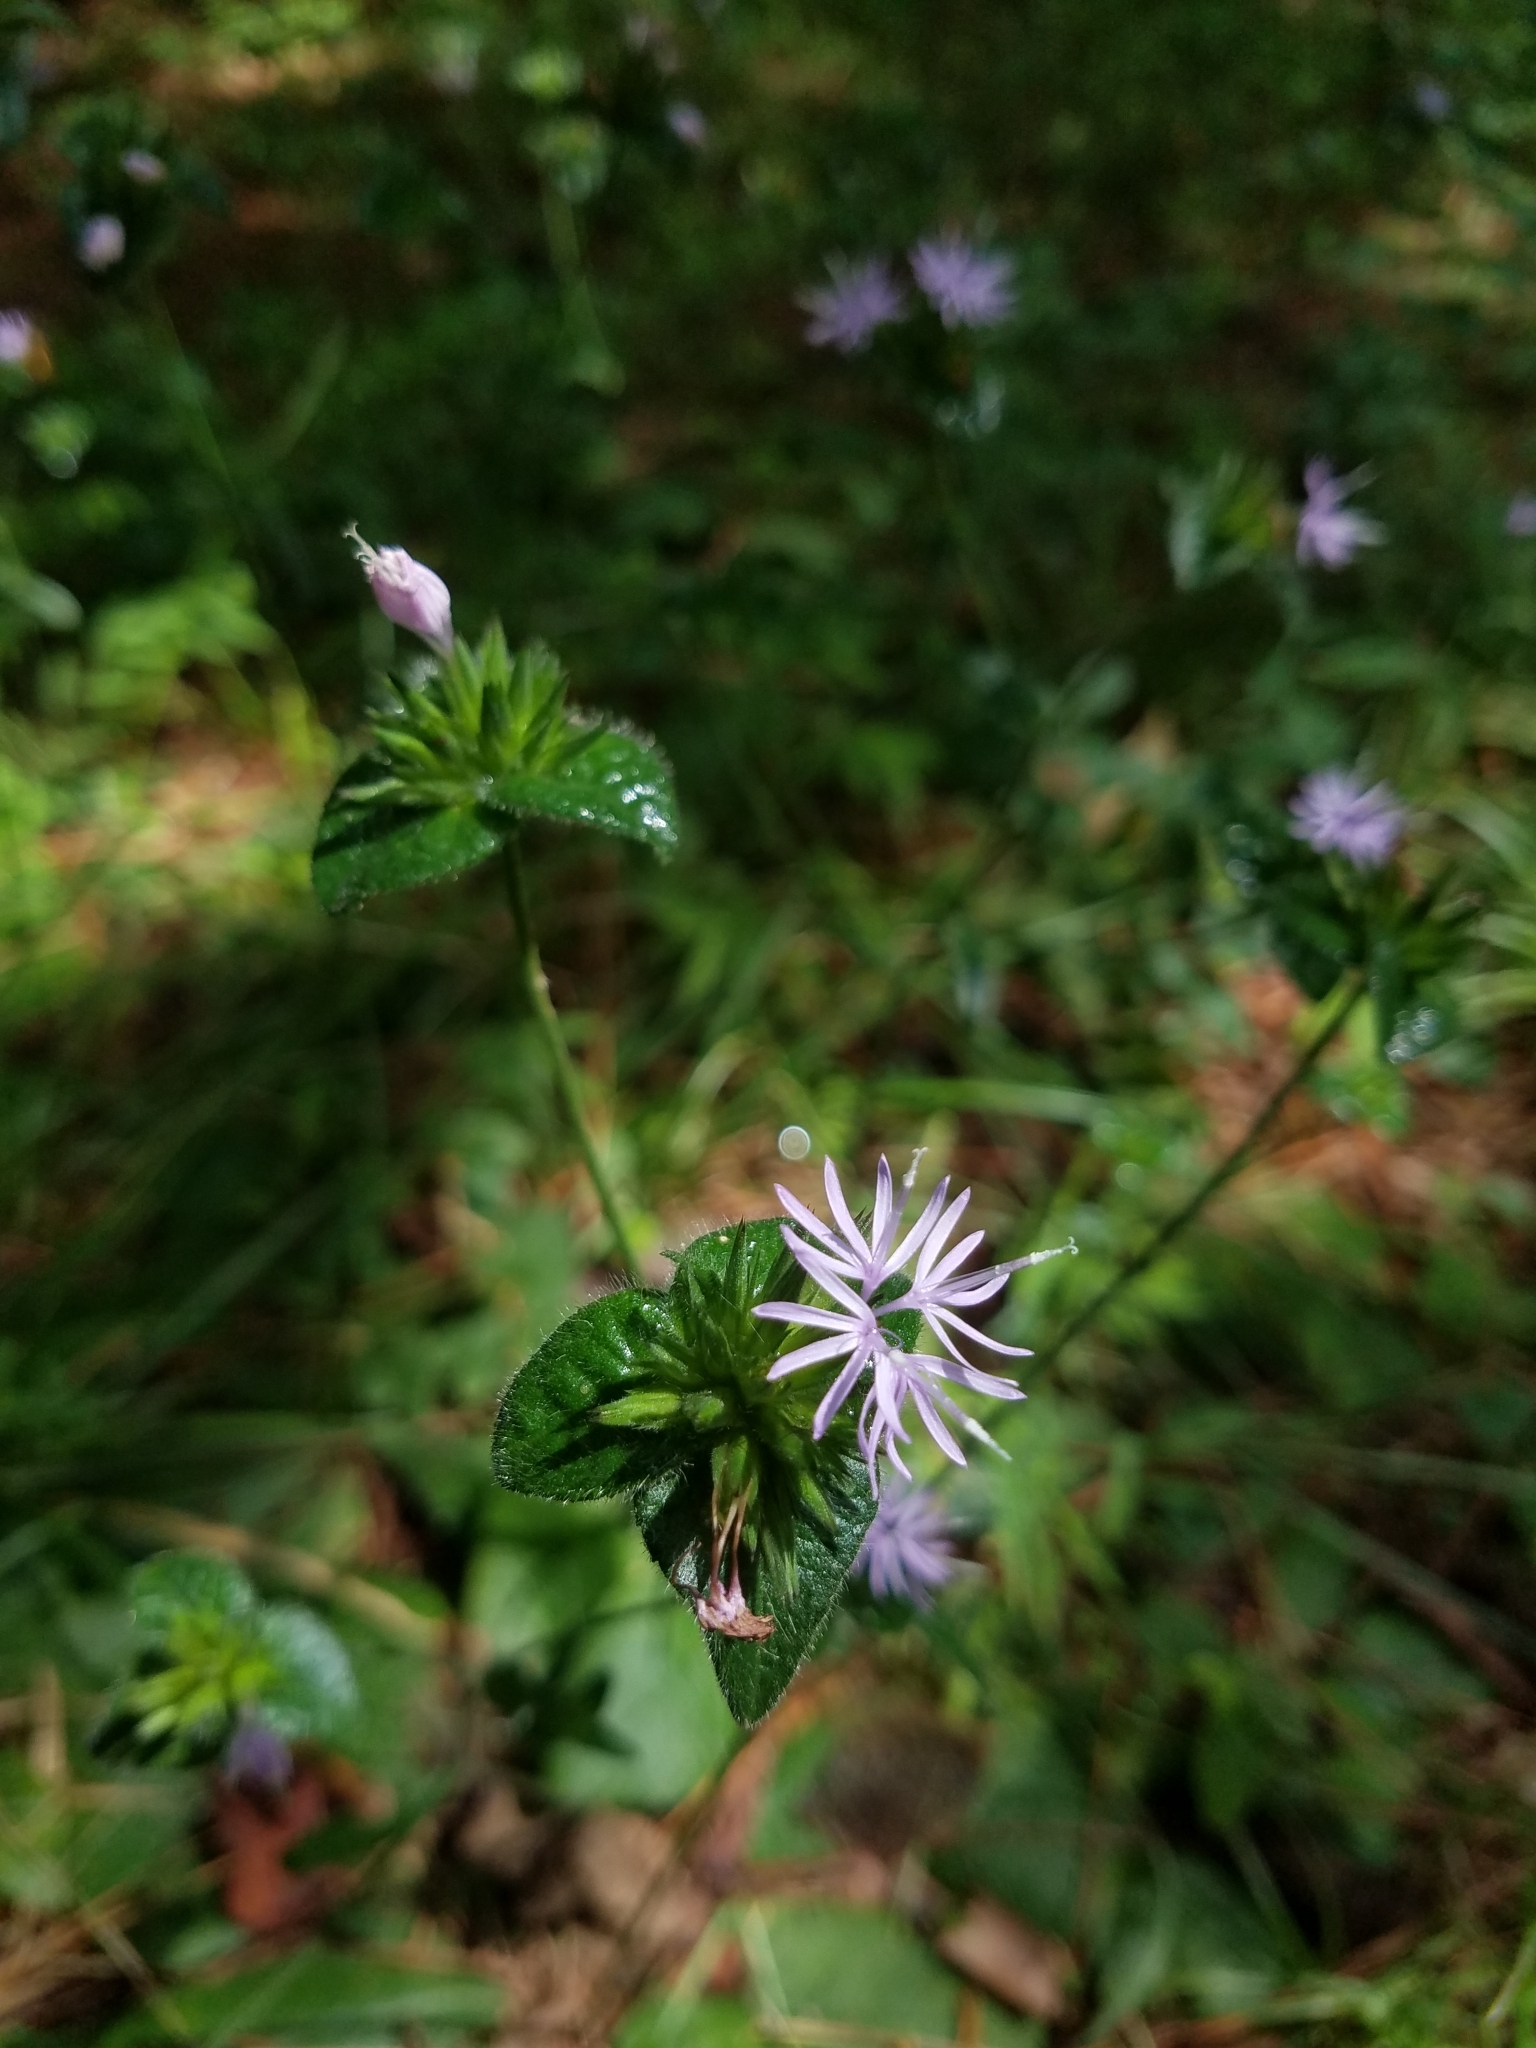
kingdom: Plantae
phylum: Tracheophyta
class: Magnoliopsida
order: Asterales
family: Asteraceae
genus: Elephantopus
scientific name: Elephantopus tomentosus
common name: Tobacco-weed
